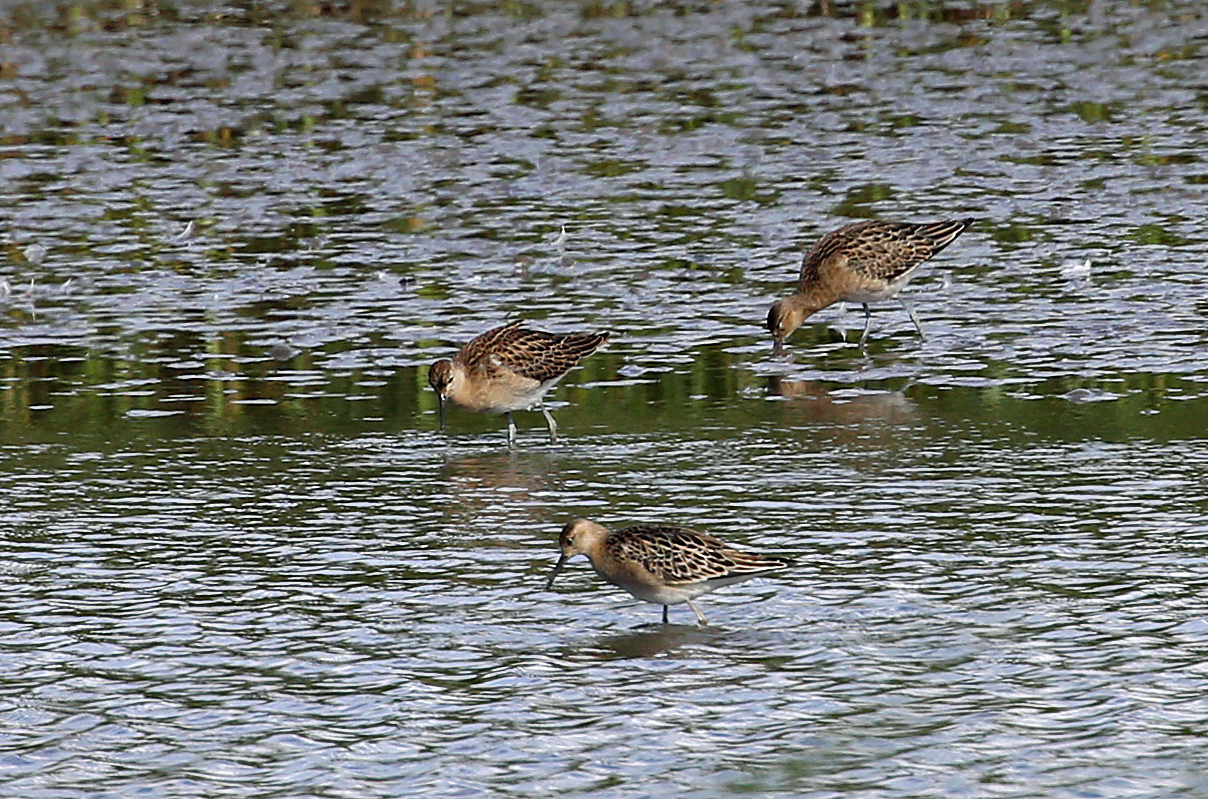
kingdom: Animalia
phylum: Chordata
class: Aves
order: Charadriiformes
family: Scolopacidae
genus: Calidris
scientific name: Calidris pugnax
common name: Ruff
